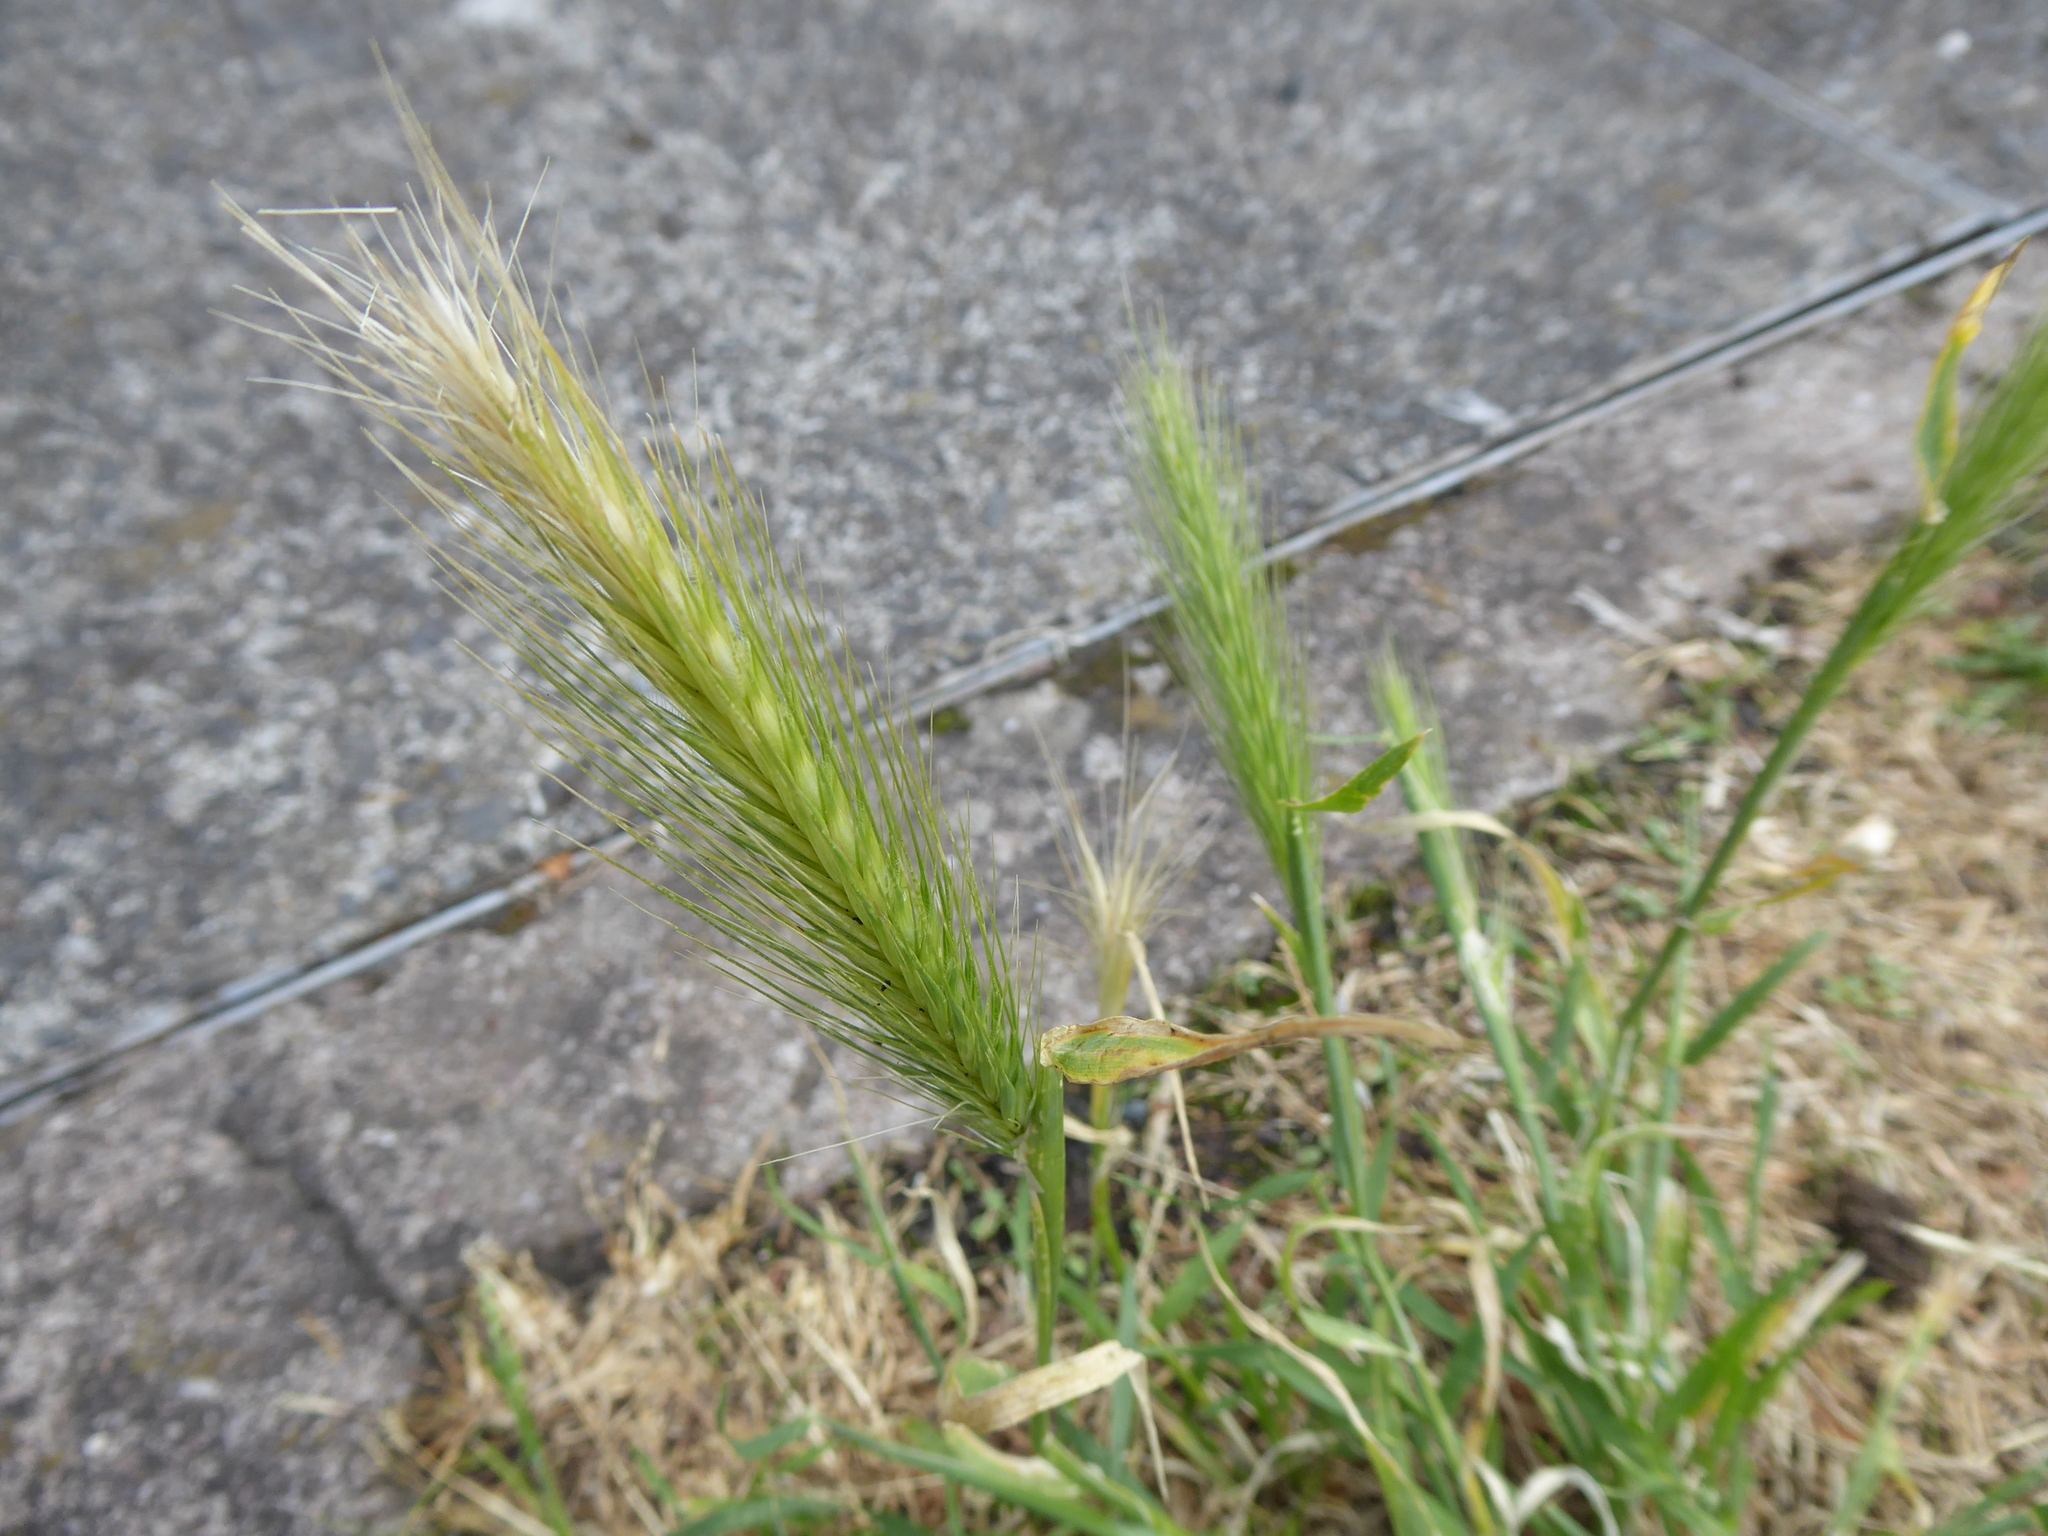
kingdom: Plantae
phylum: Tracheophyta
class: Liliopsida
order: Poales
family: Poaceae
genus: Hordeum
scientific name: Hordeum murinum
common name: Wall barley
